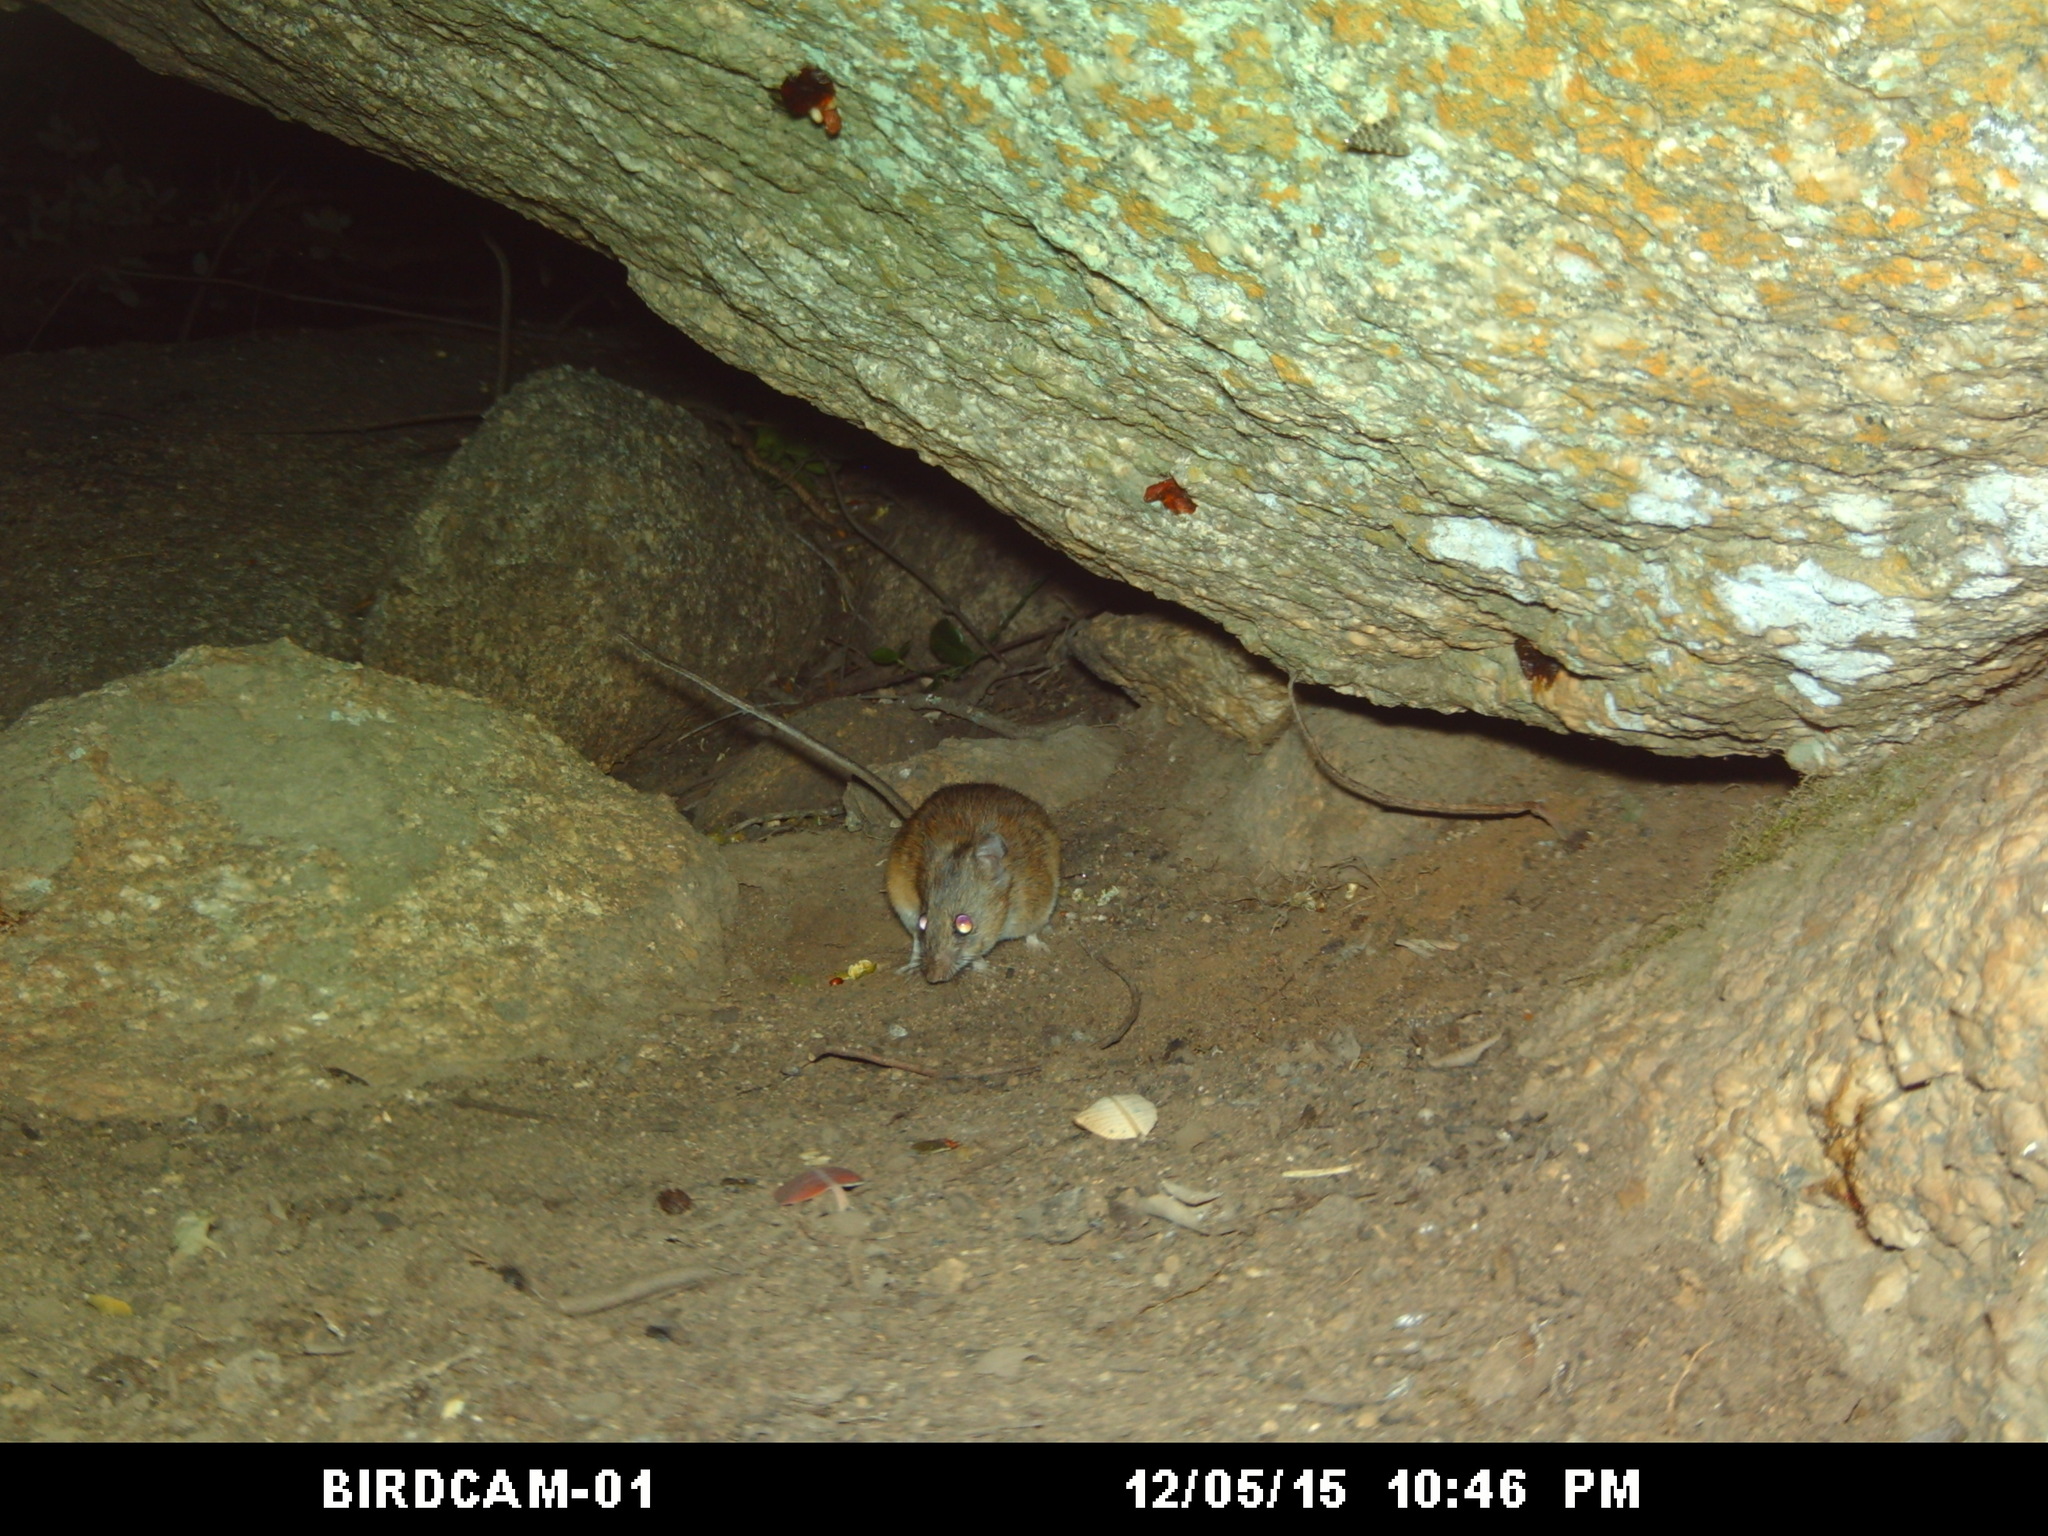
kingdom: Animalia
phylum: Chordata
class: Mammalia
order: Rodentia
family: Muridae
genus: Micaelamys
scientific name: Micaelamys namaquensis
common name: Namaqua micaelamys
